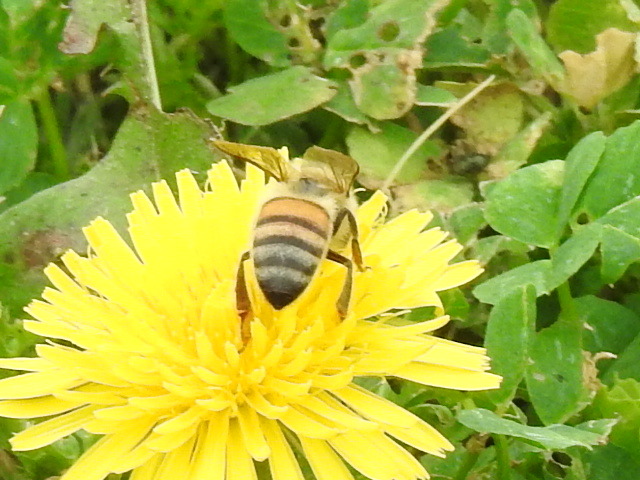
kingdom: Animalia
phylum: Arthropoda
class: Insecta
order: Hymenoptera
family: Apidae
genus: Apis
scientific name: Apis mellifera
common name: Honey bee
